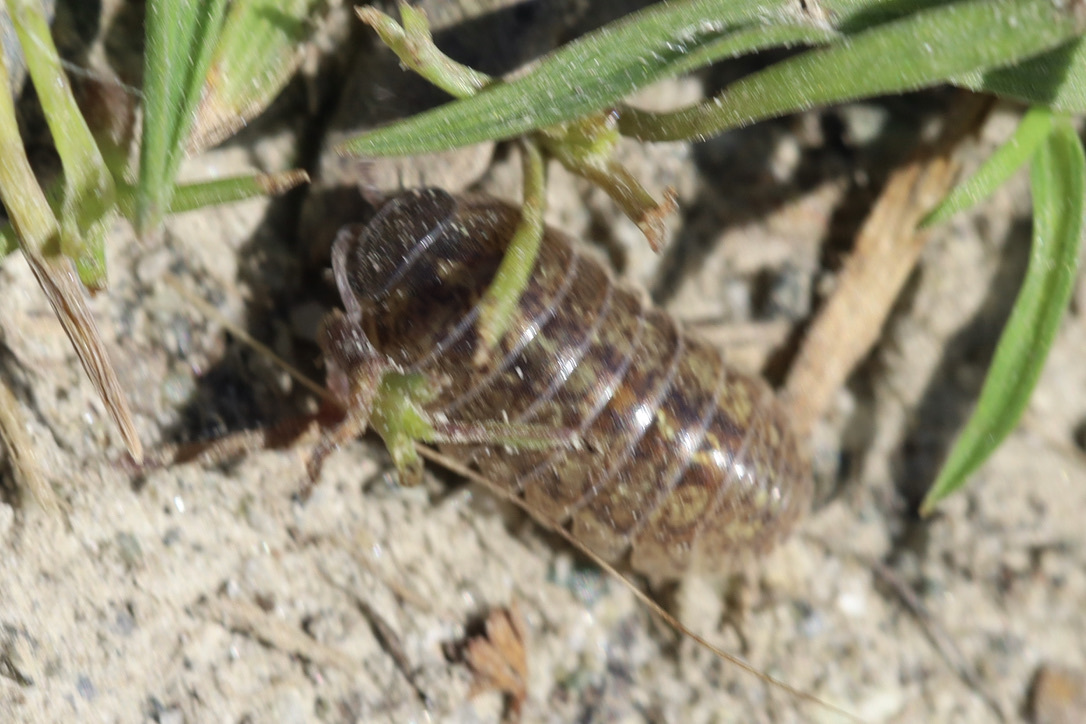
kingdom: Animalia
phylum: Arthropoda
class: Malacostraca
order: Isopoda
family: Armadillidiidae
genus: Armadillidium
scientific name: Armadillidium vulgare
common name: Common pill woodlouse
